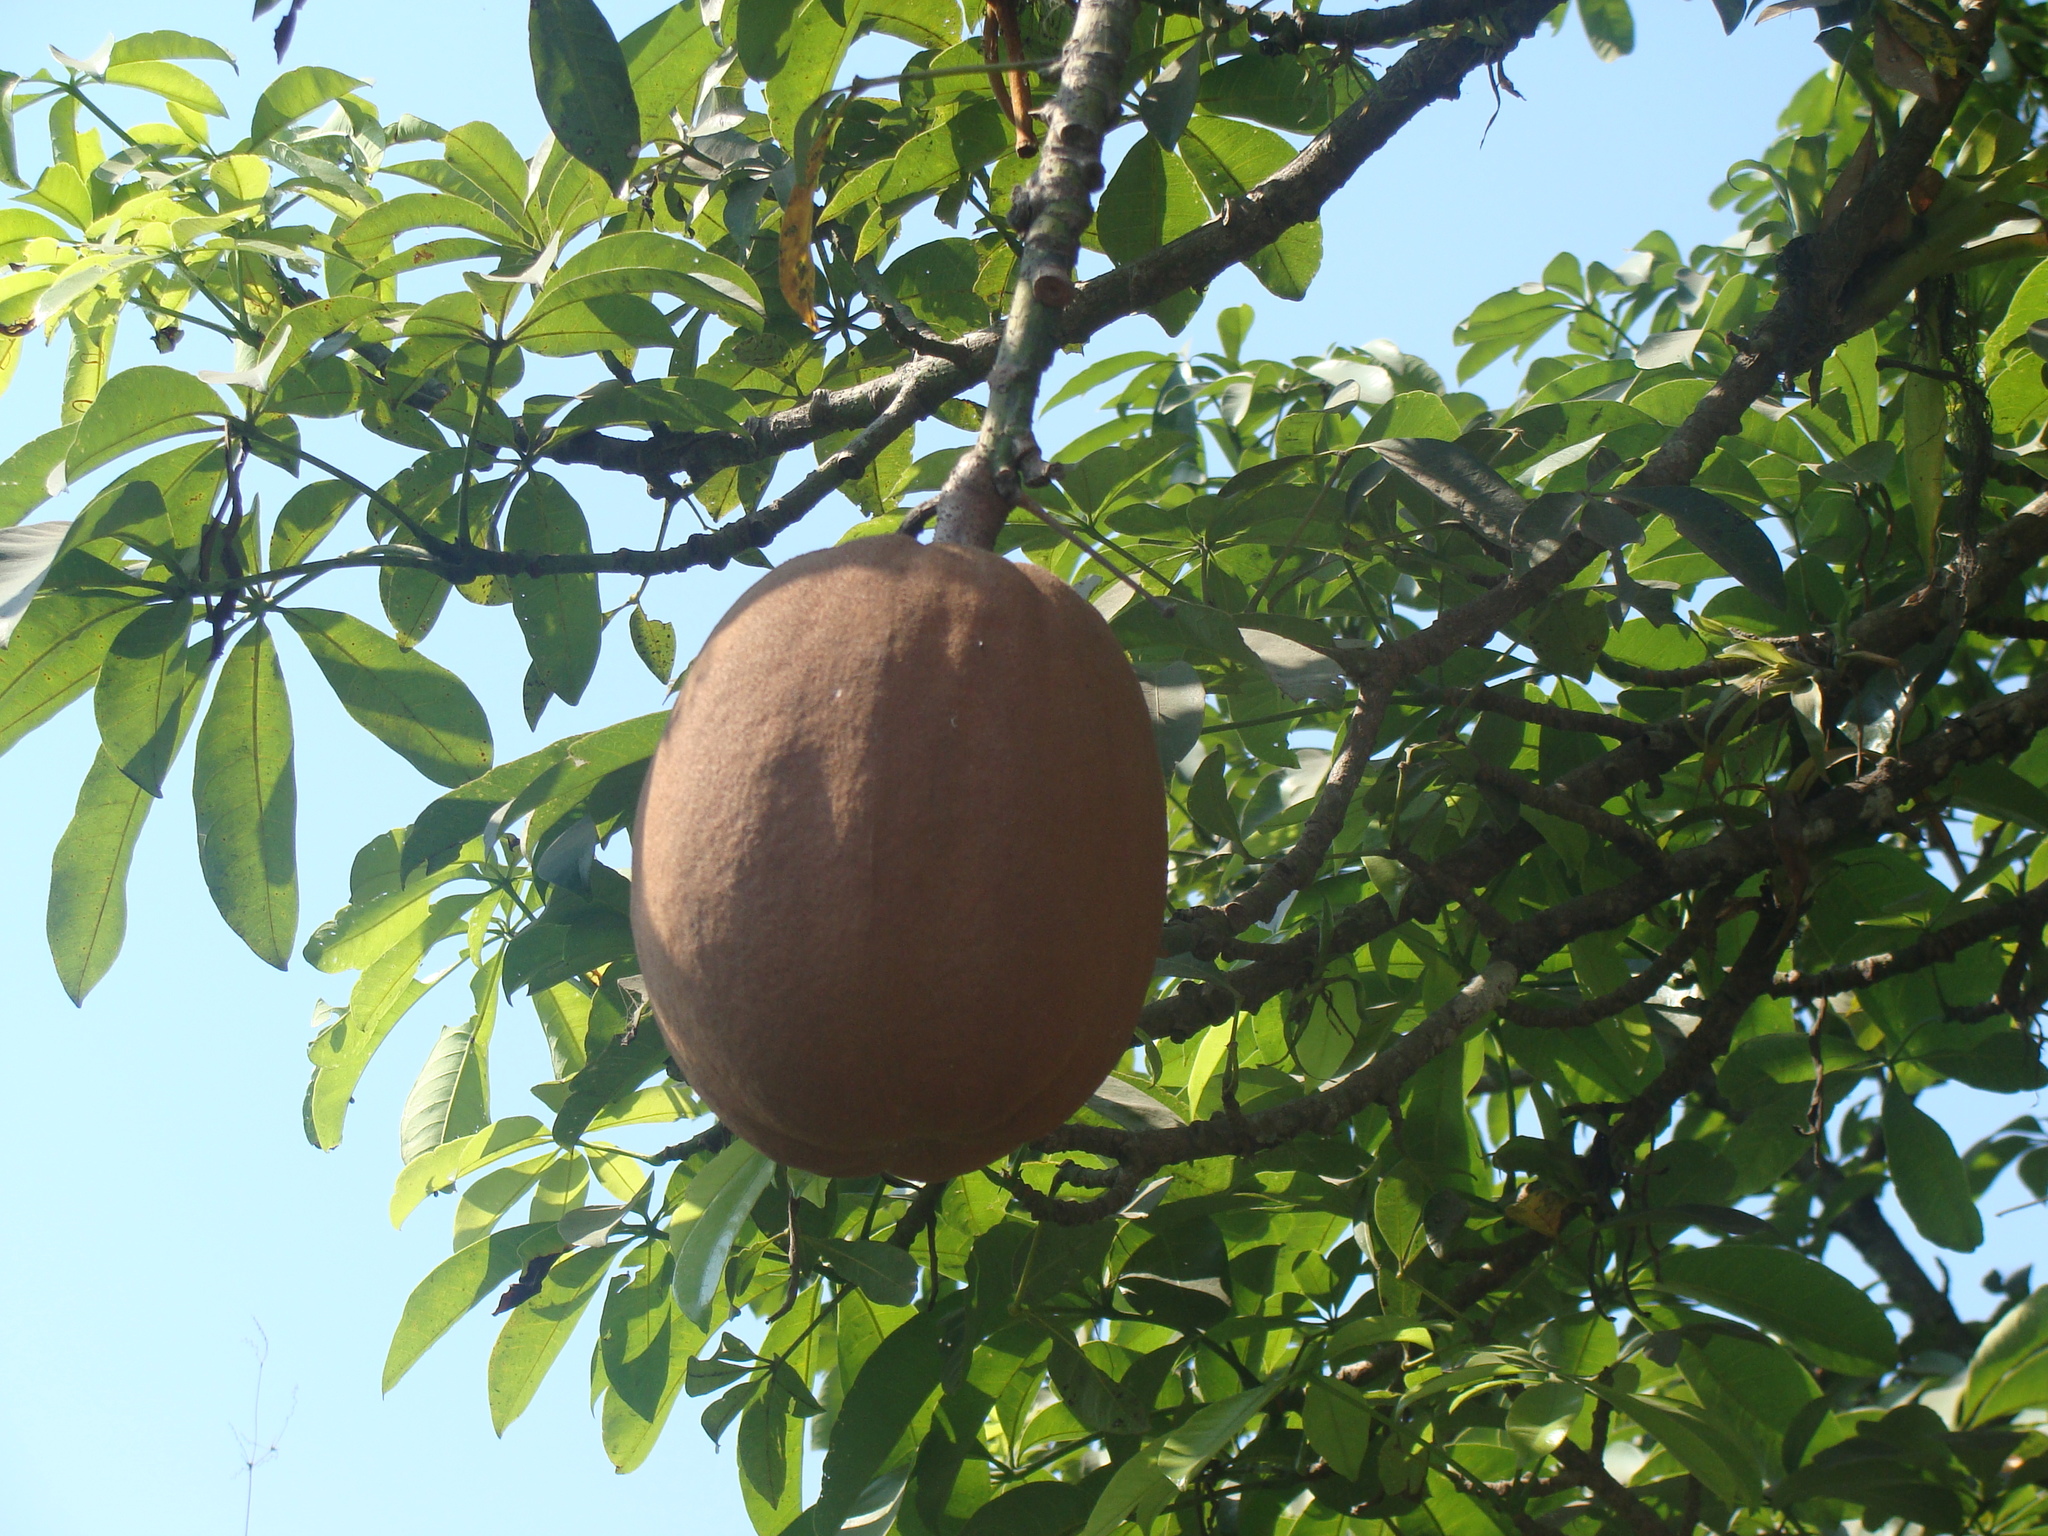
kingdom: Plantae
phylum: Tracheophyta
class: Magnoliopsida
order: Malvales
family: Malvaceae
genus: Pachira
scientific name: Pachira aquatica
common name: Provision-tree
